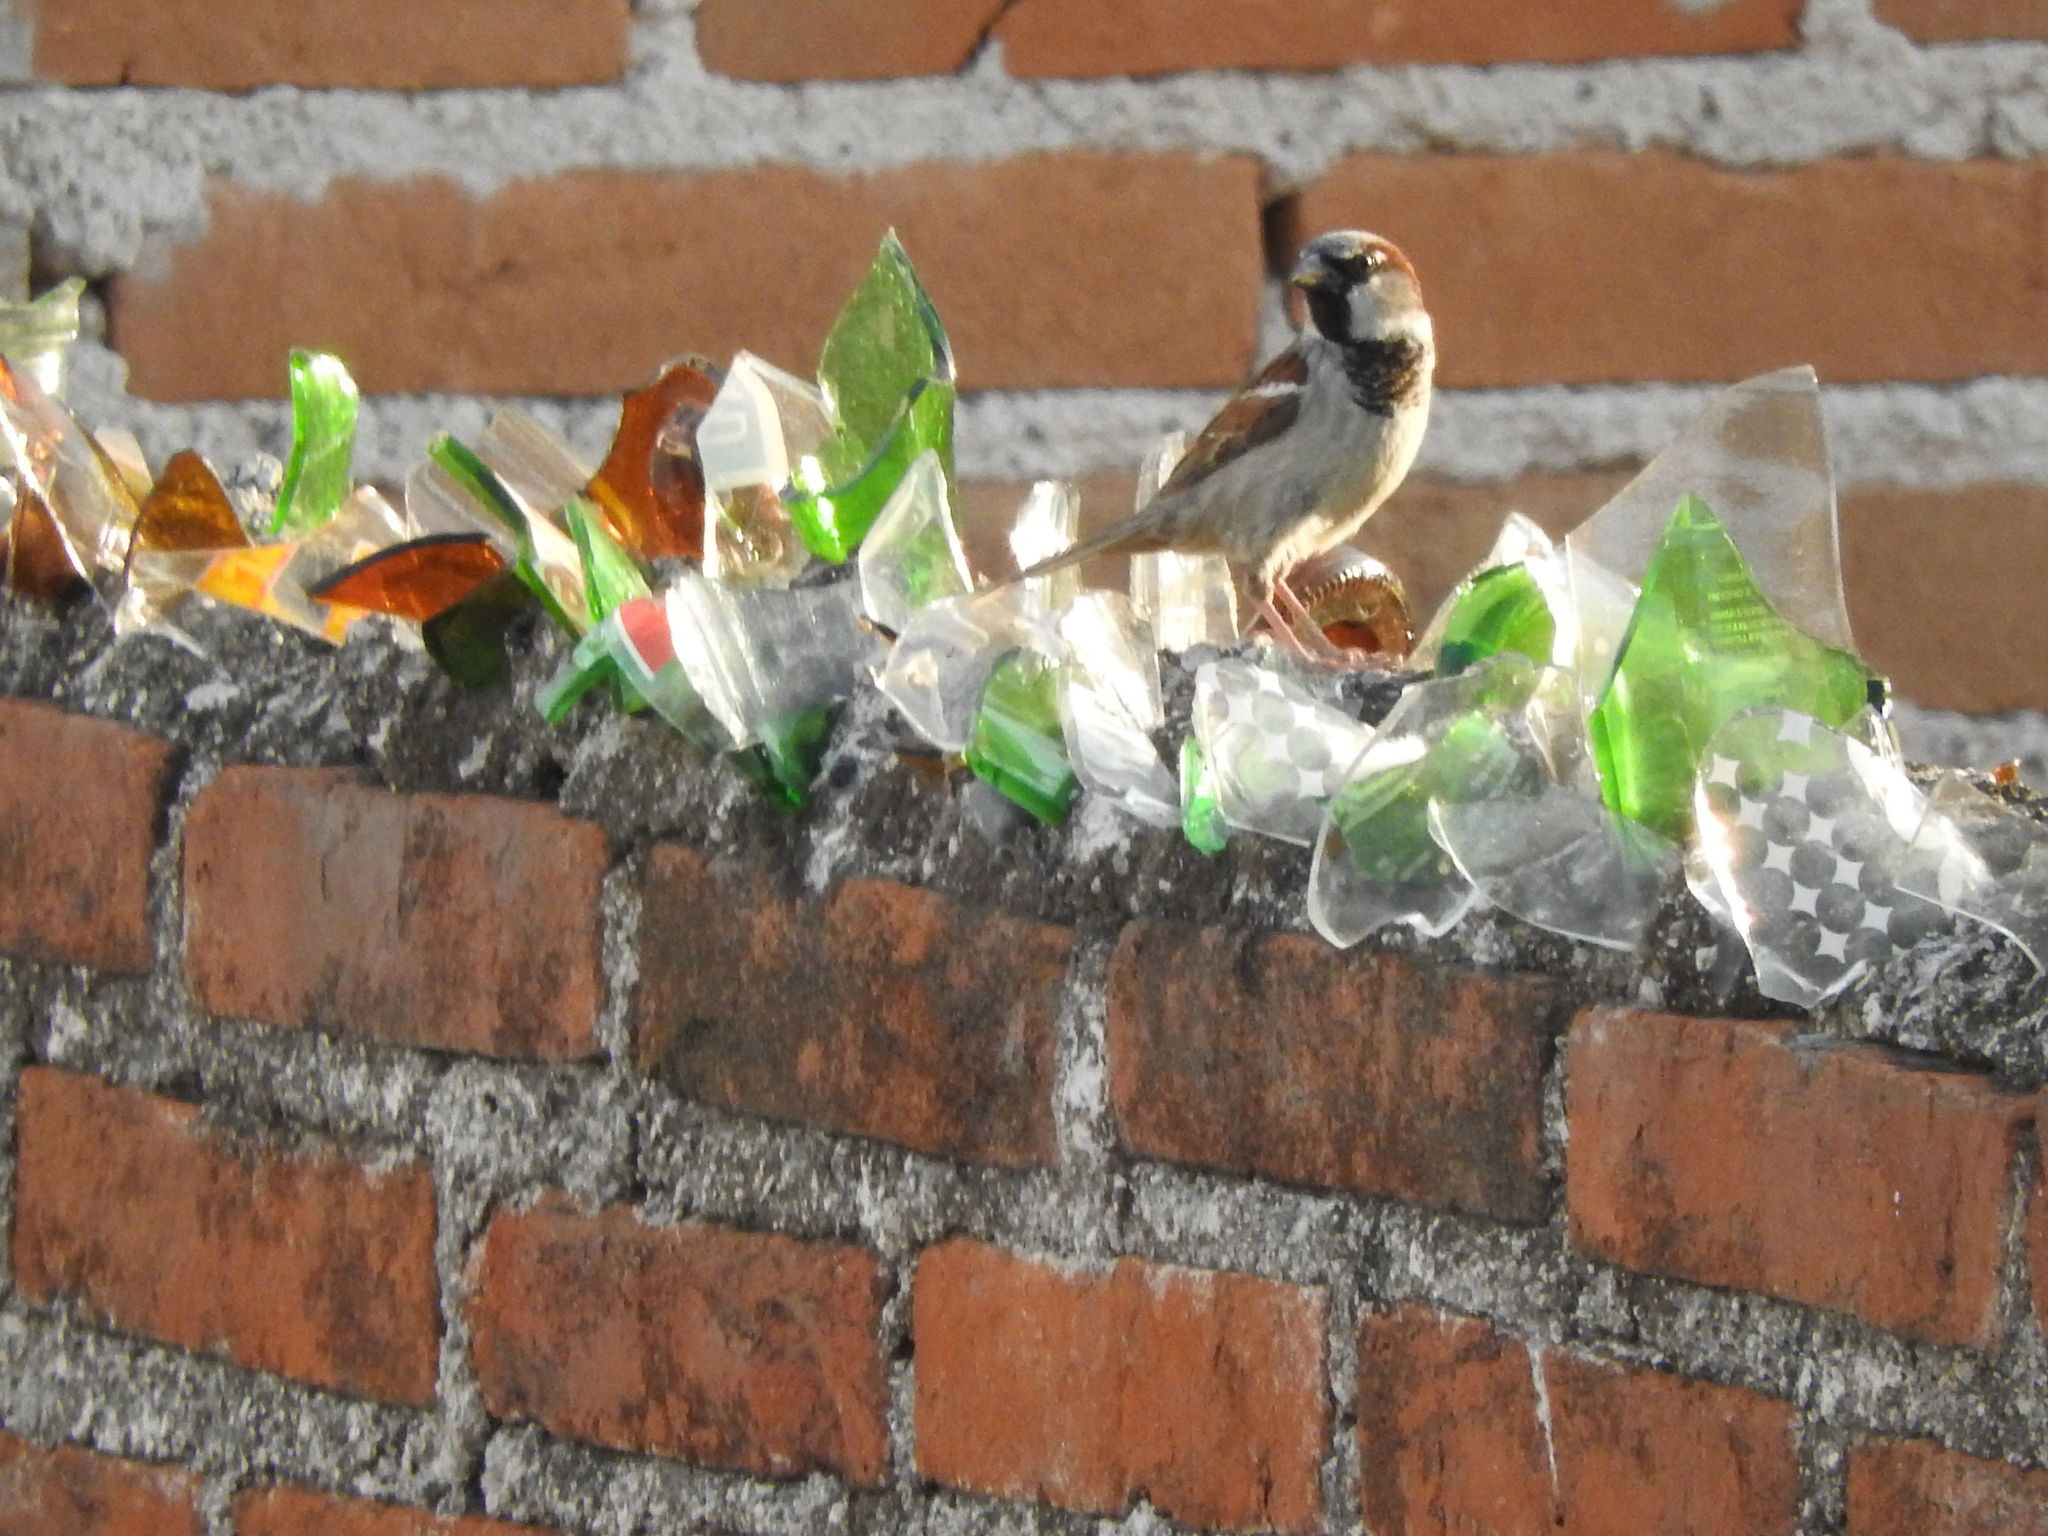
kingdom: Animalia
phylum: Chordata
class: Aves
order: Passeriformes
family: Passeridae
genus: Passer
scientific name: Passer domesticus
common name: House sparrow
